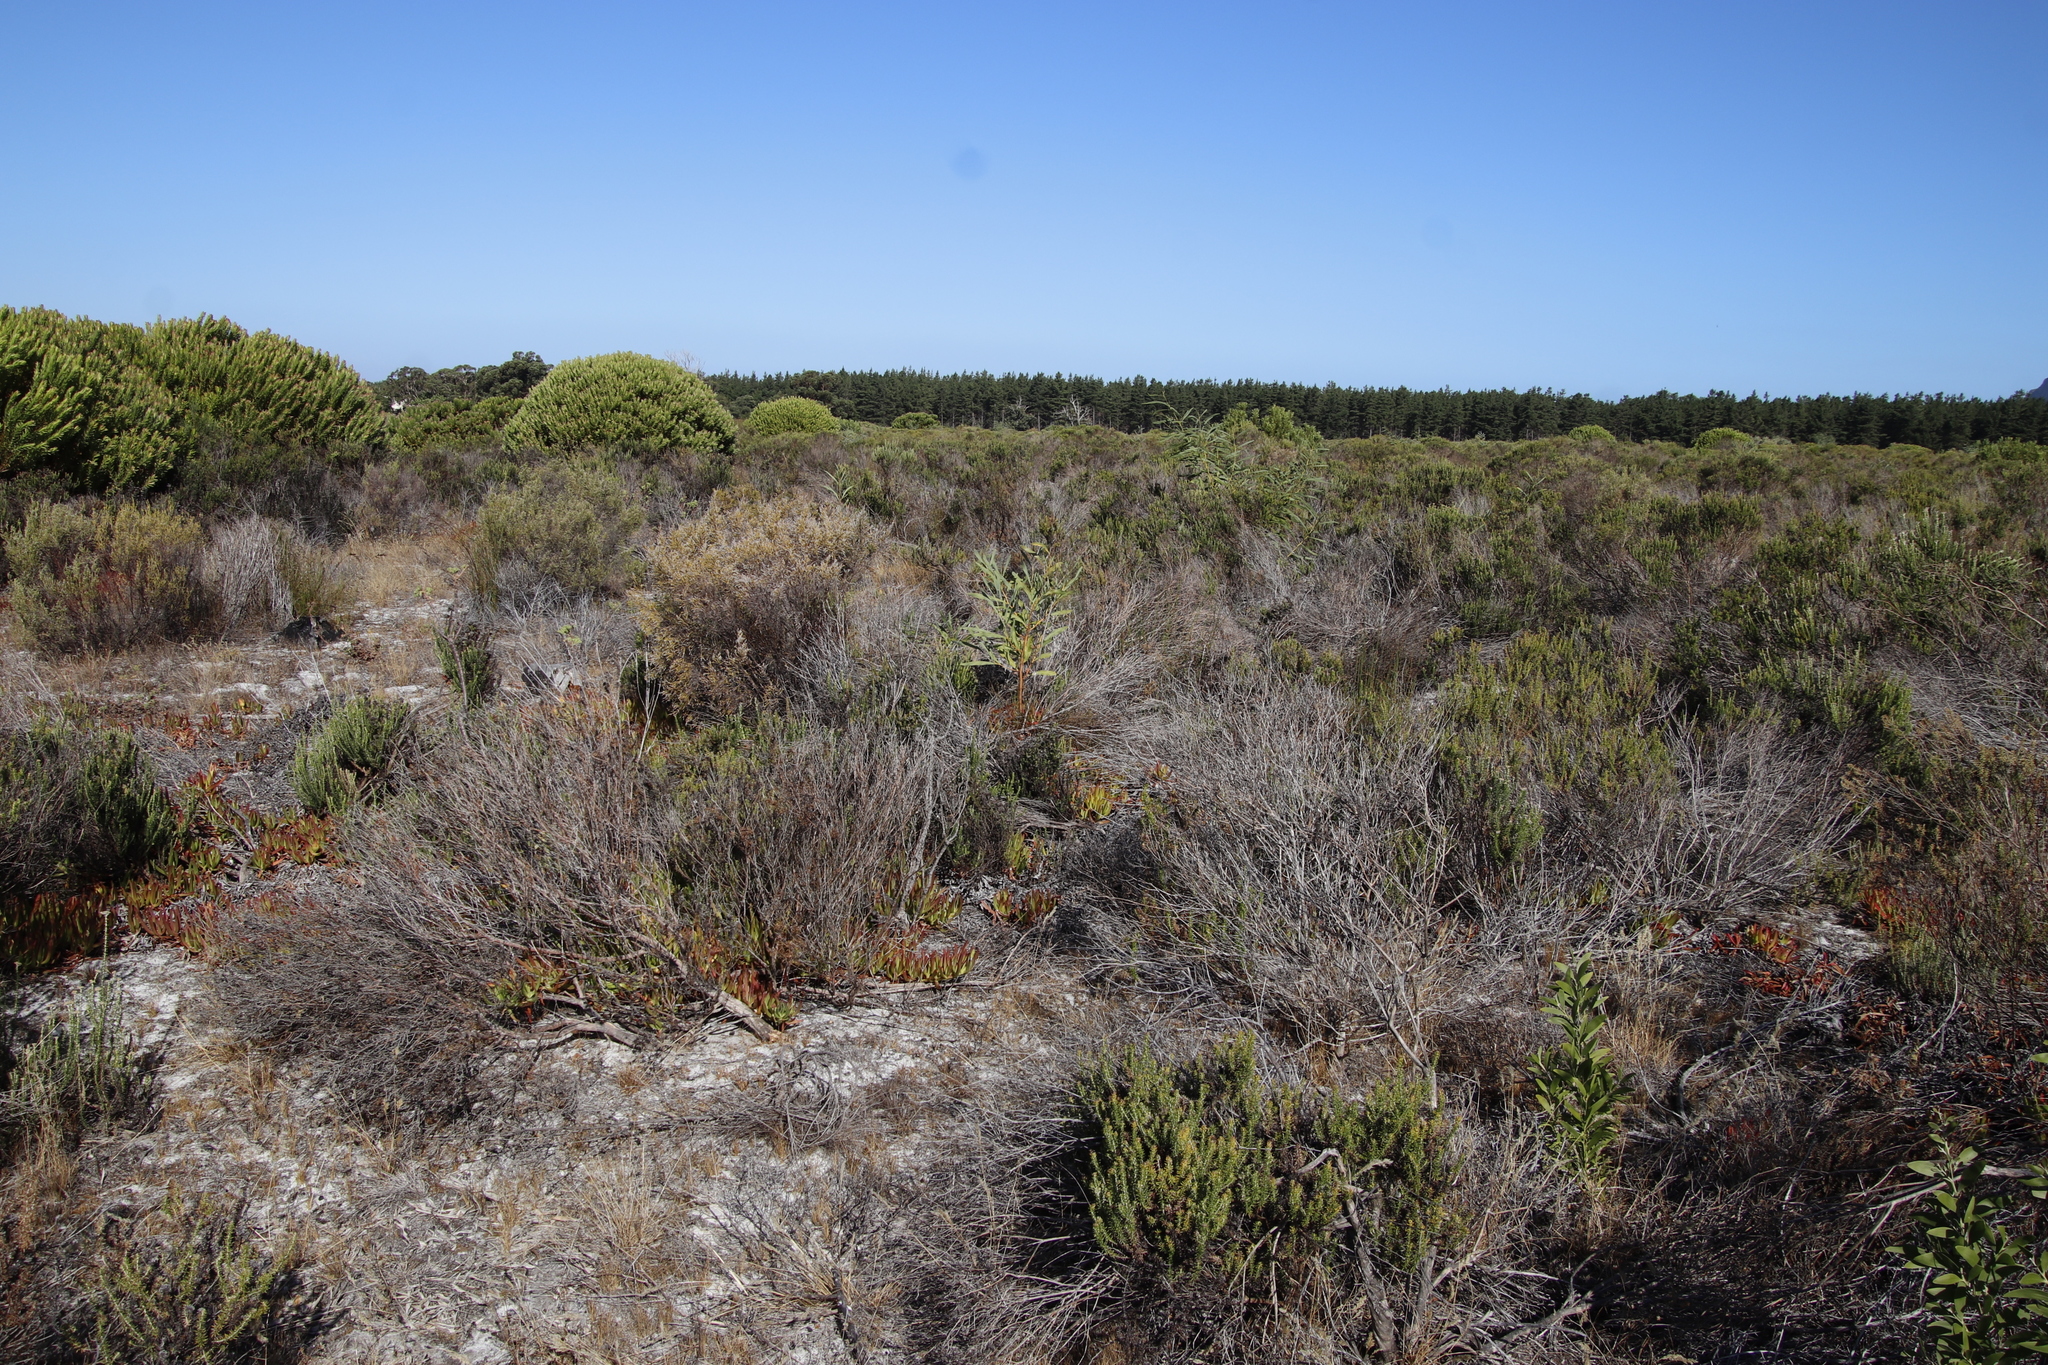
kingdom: Plantae
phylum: Tracheophyta
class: Magnoliopsida
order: Fabales
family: Fabaceae
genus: Acacia
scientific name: Acacia saligna
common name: Orange wattle
